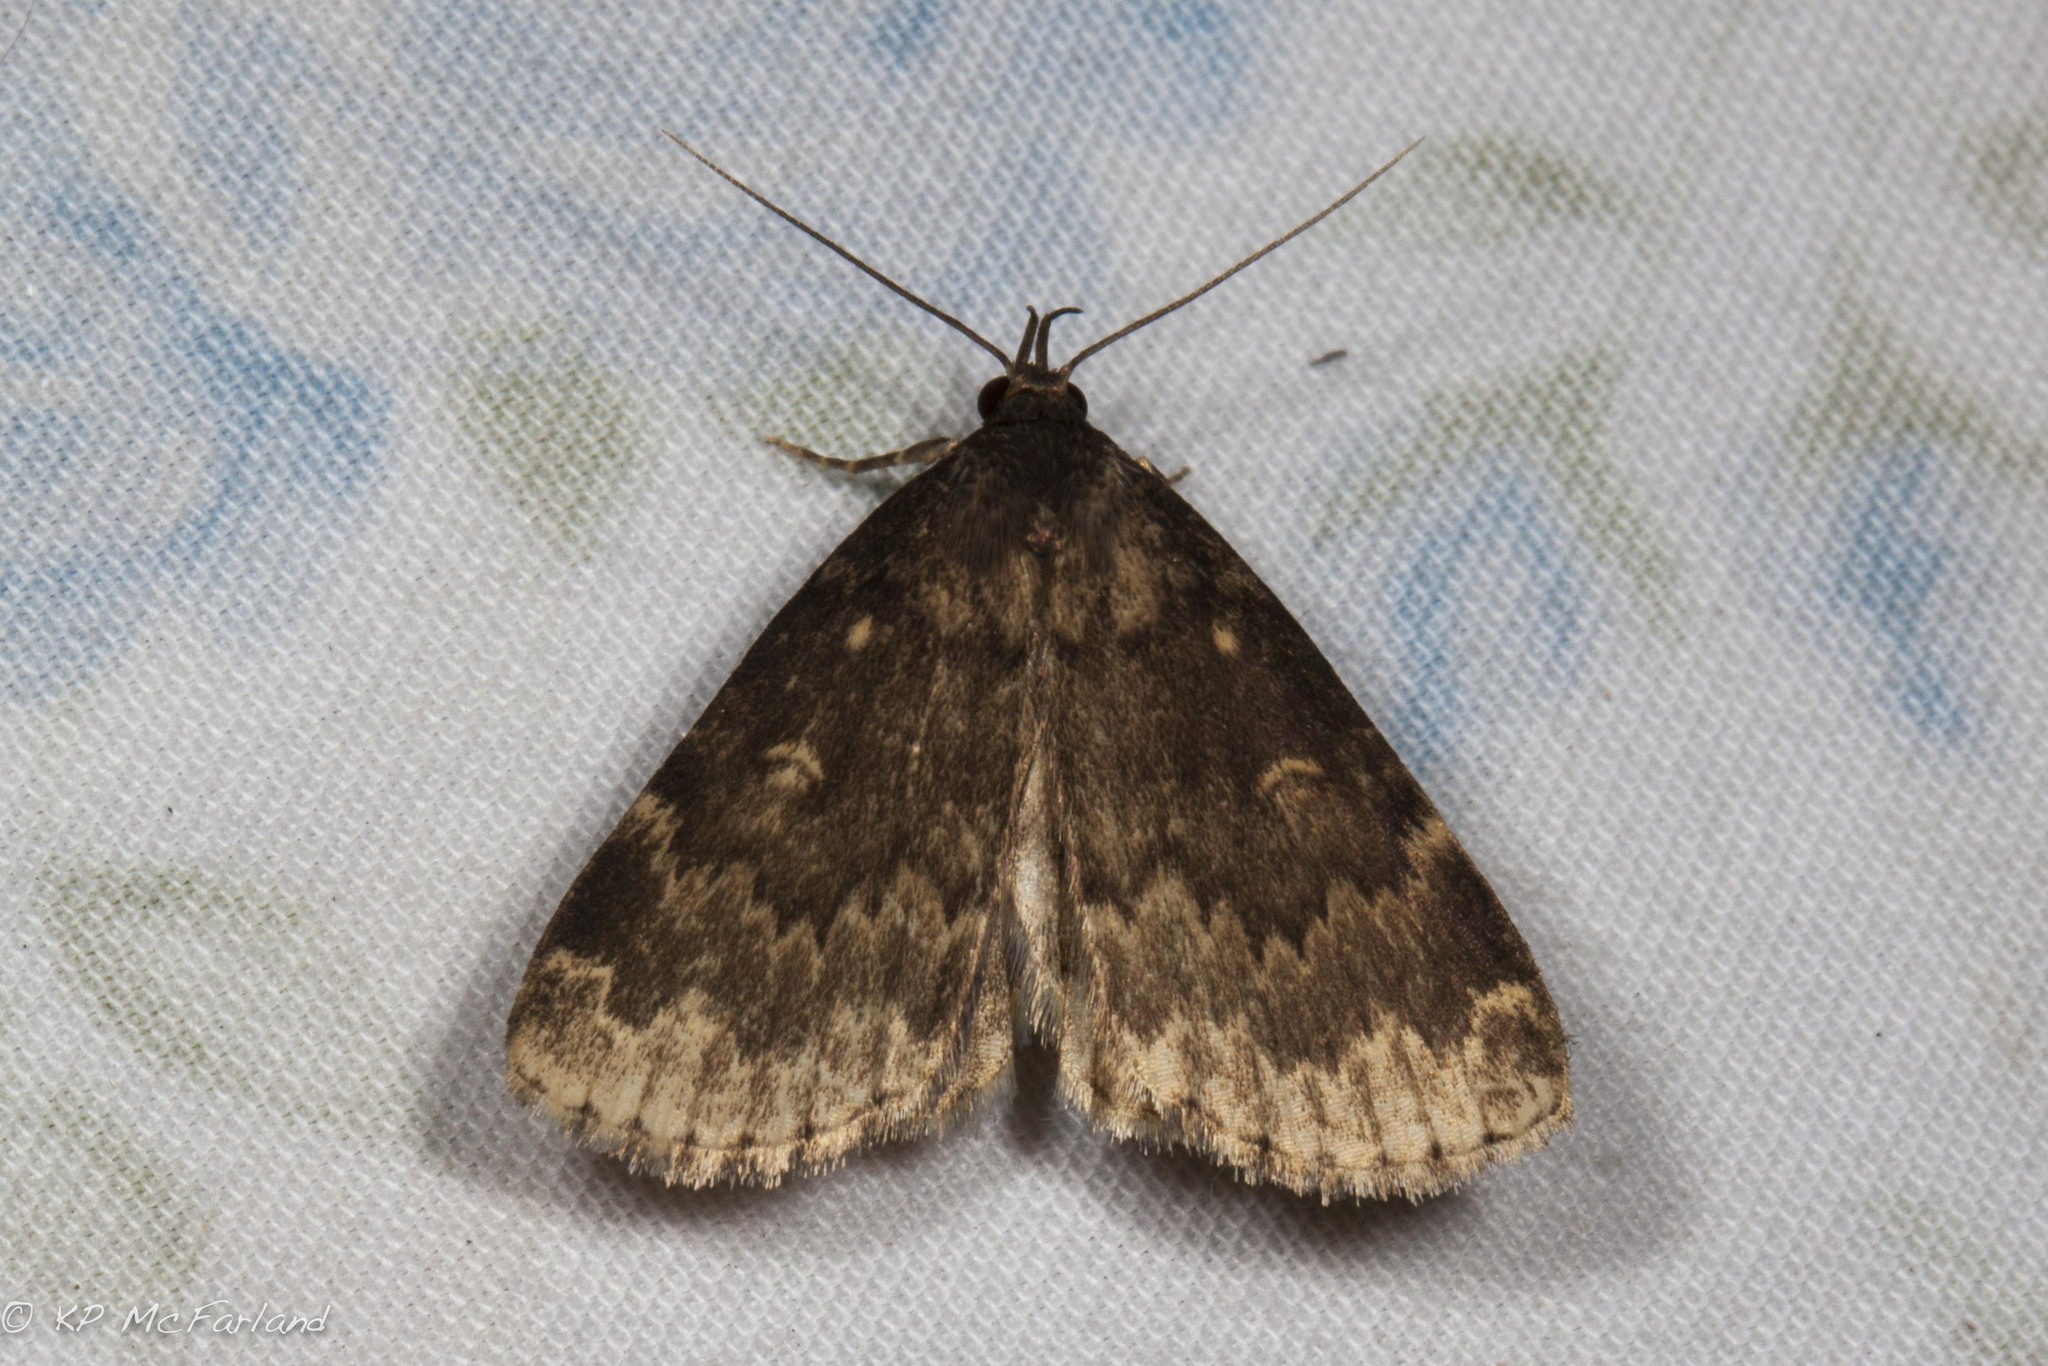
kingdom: Animalia
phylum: Arthropoda
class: Insecta
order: Lepidoptera
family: Erebidae
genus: Idia
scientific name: Idia lubricalis
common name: Twin-striped tabby
